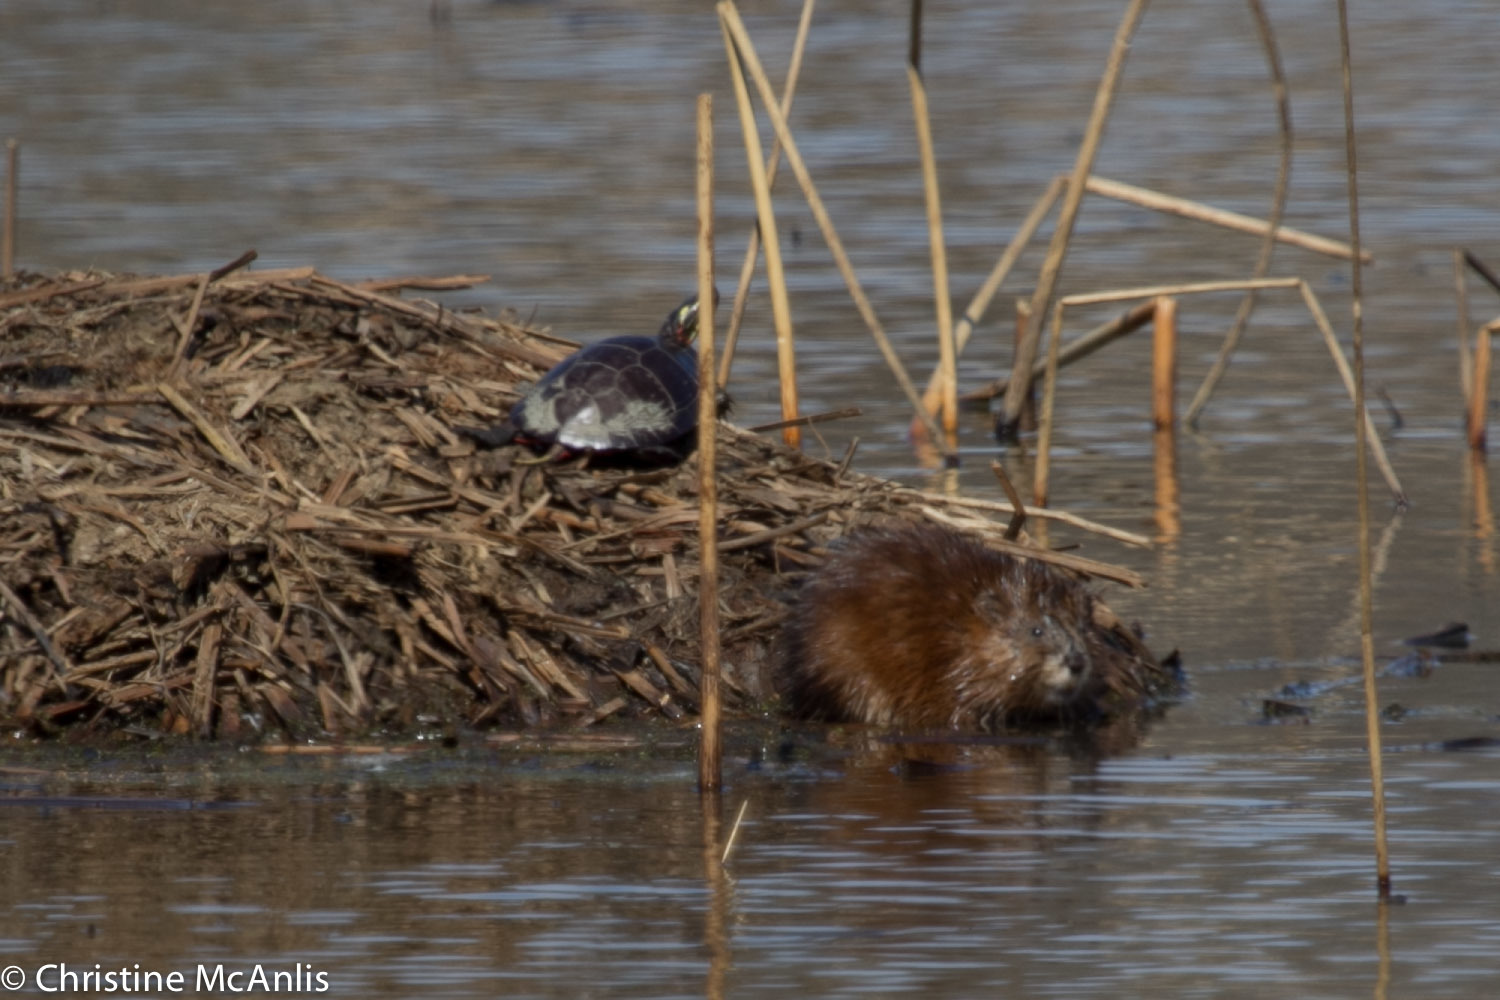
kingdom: Animalia
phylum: Chordata
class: Mammalia
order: Rodentia
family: Cricetidae
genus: Ondatra
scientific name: Ondatra zibethicus
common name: Muskrat
